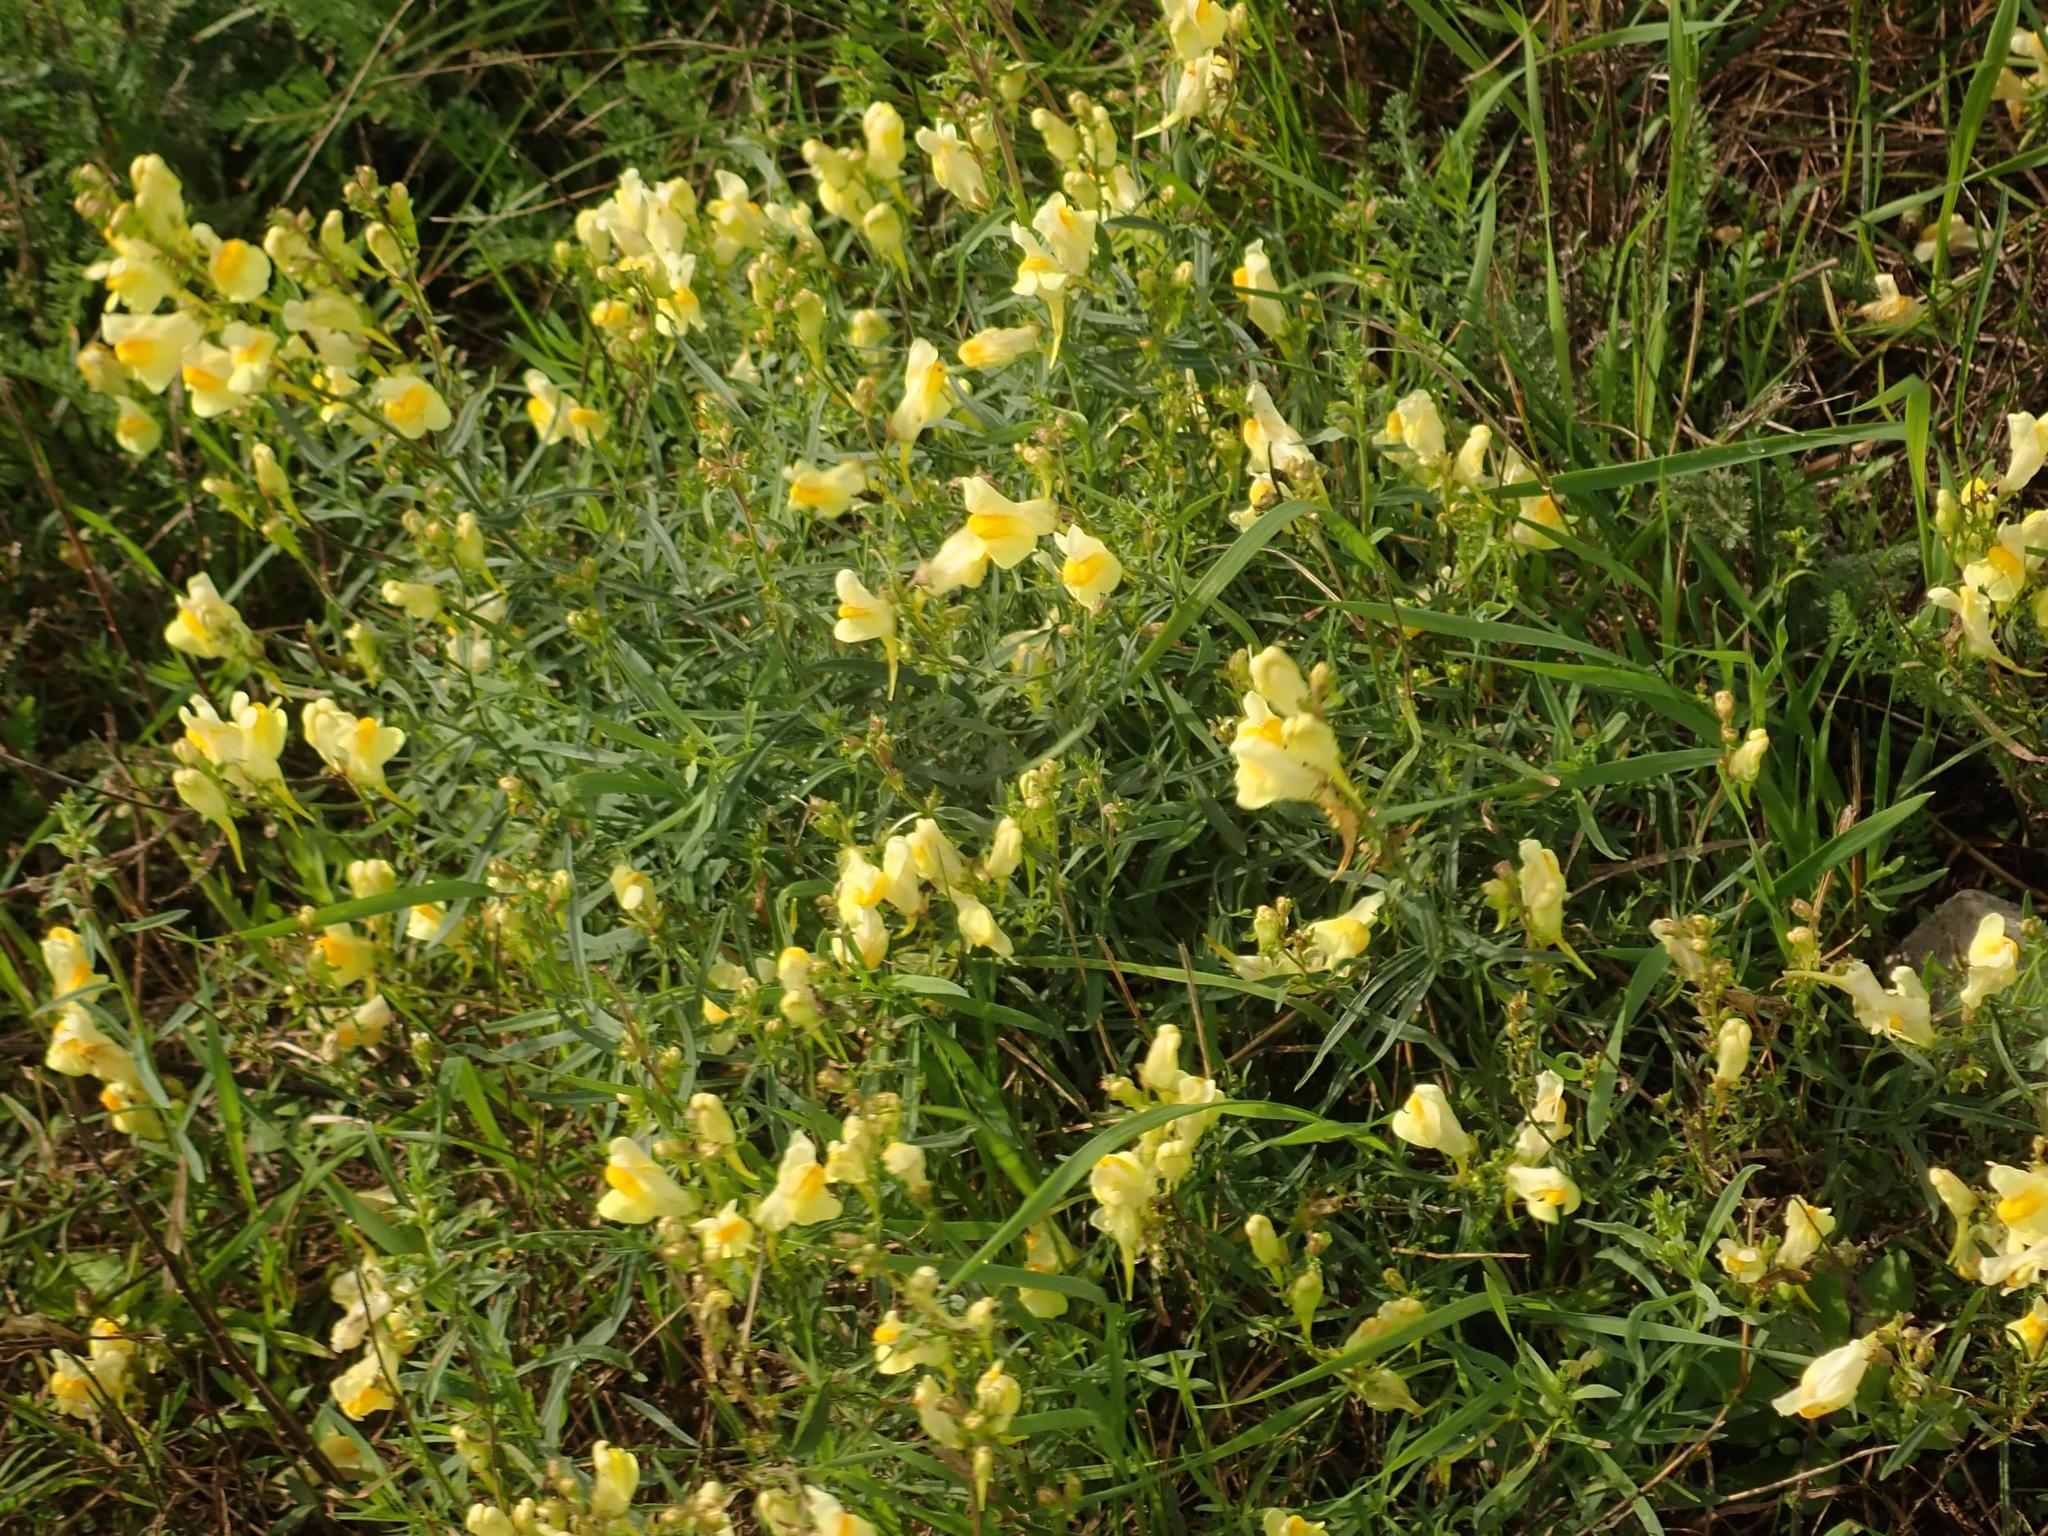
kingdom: Plantae
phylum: Tracheophyta
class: Magnoliopsida
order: Lamiales
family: Plantaginaceae
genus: Linaria
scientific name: Linaria vulgaris
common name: Butter and eggs
